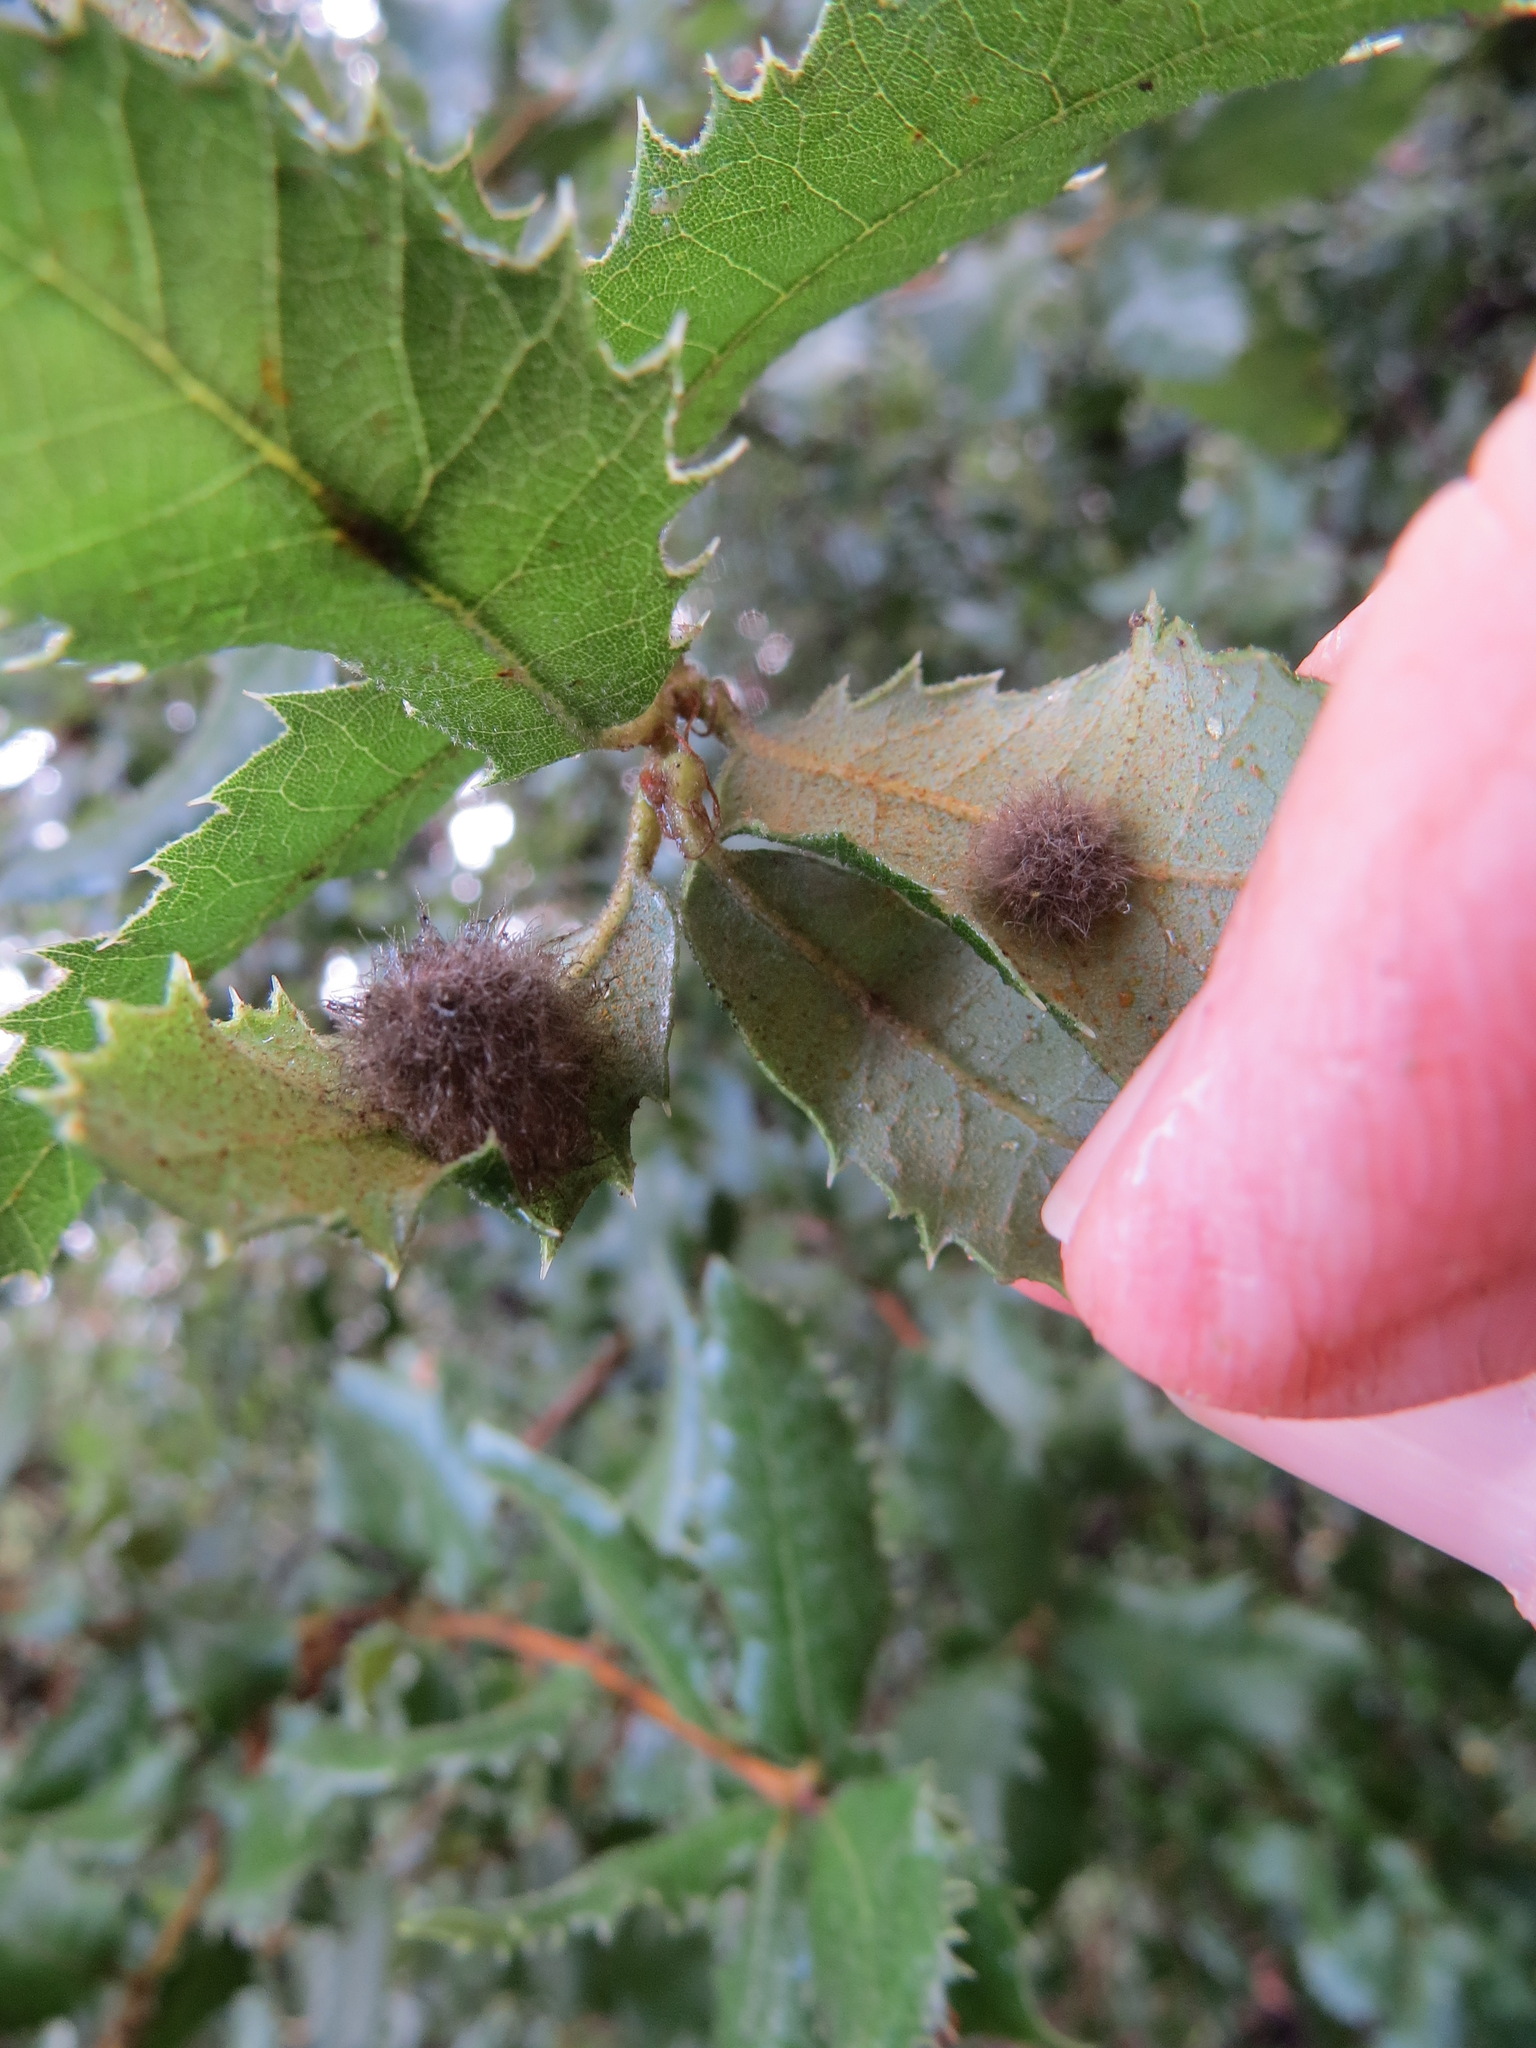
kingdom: Animalia
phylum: Arthropoda
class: Insecta
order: Hymenoptera
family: Cynipidae
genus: Disholandricus
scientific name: Disholandricus
